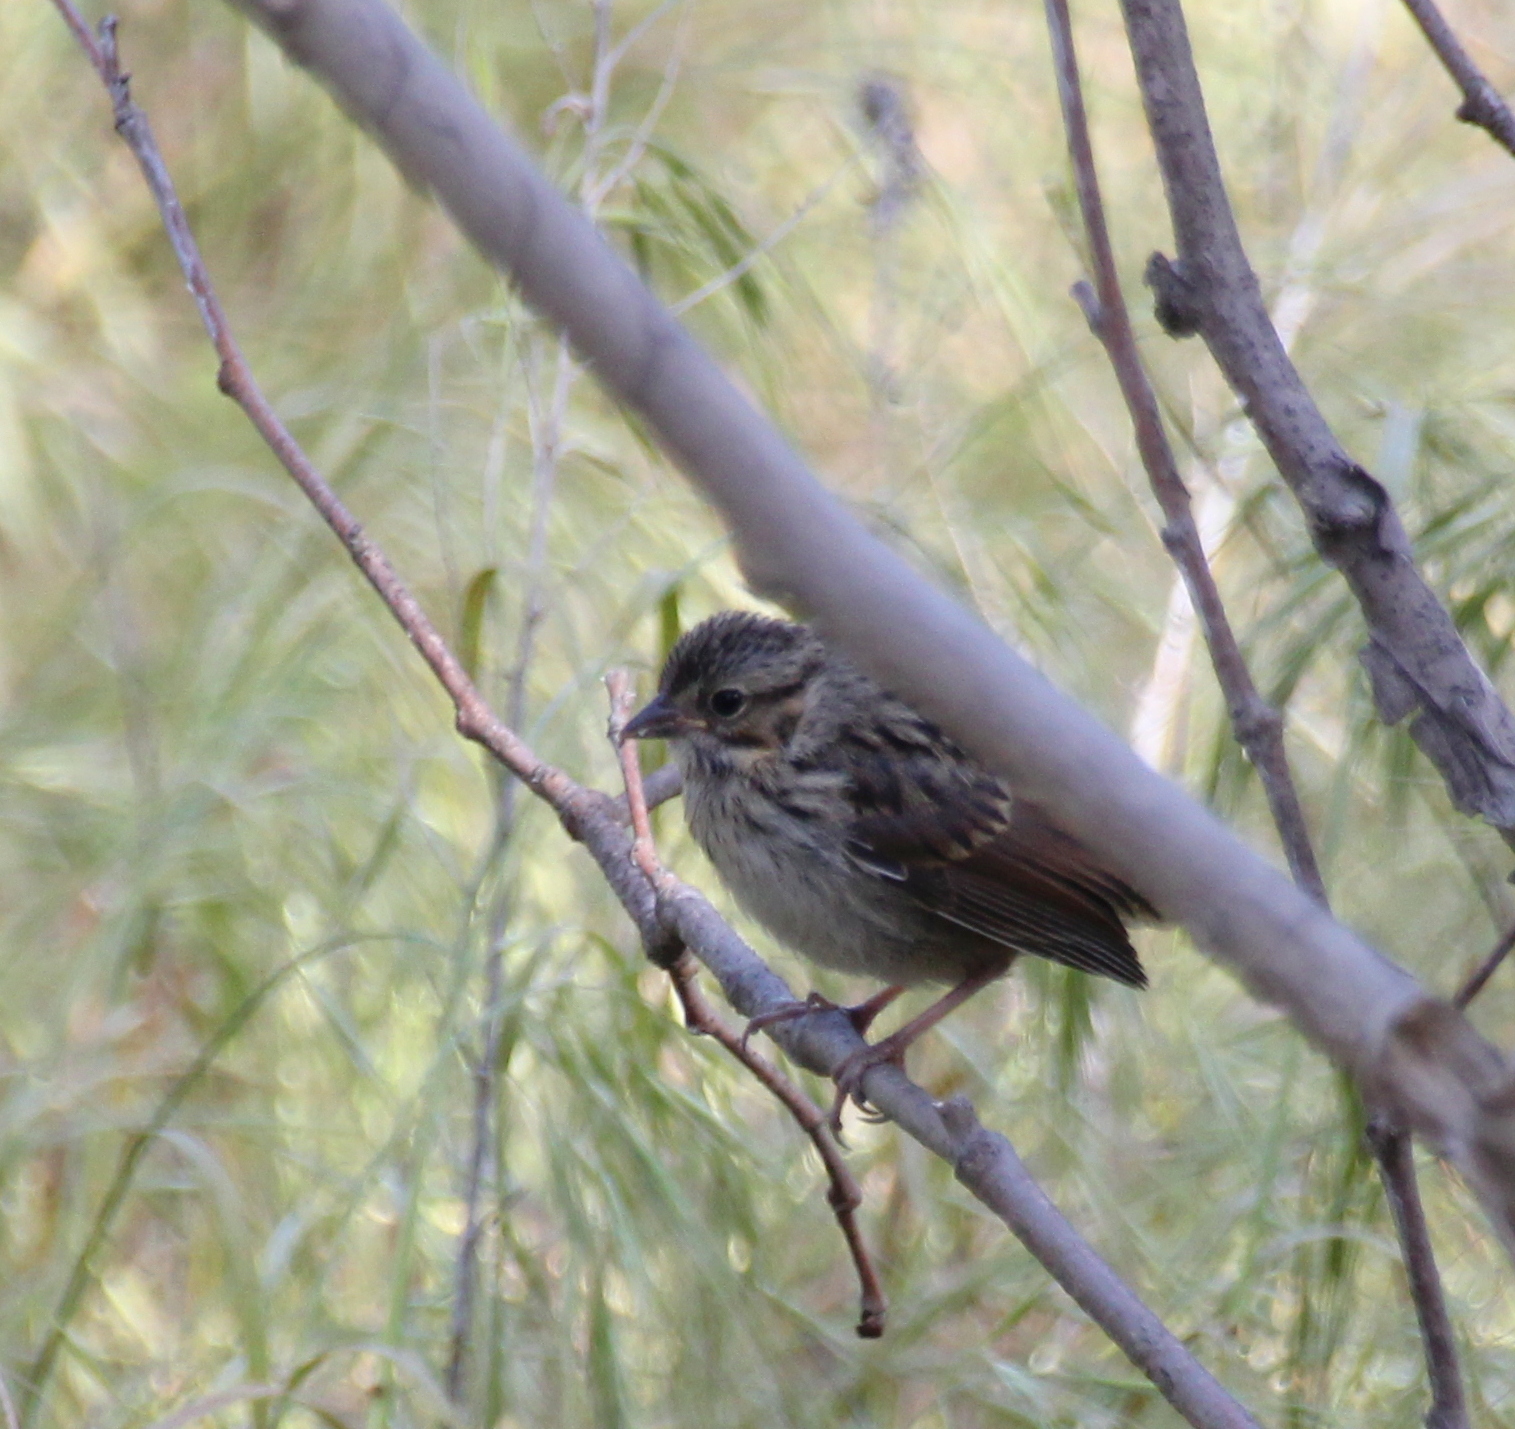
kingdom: Animalia
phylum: Chordata
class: Aves
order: Passeriformes
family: Passerellidae
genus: Melospiza
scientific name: Melospiza melodia
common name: Song sparrow
